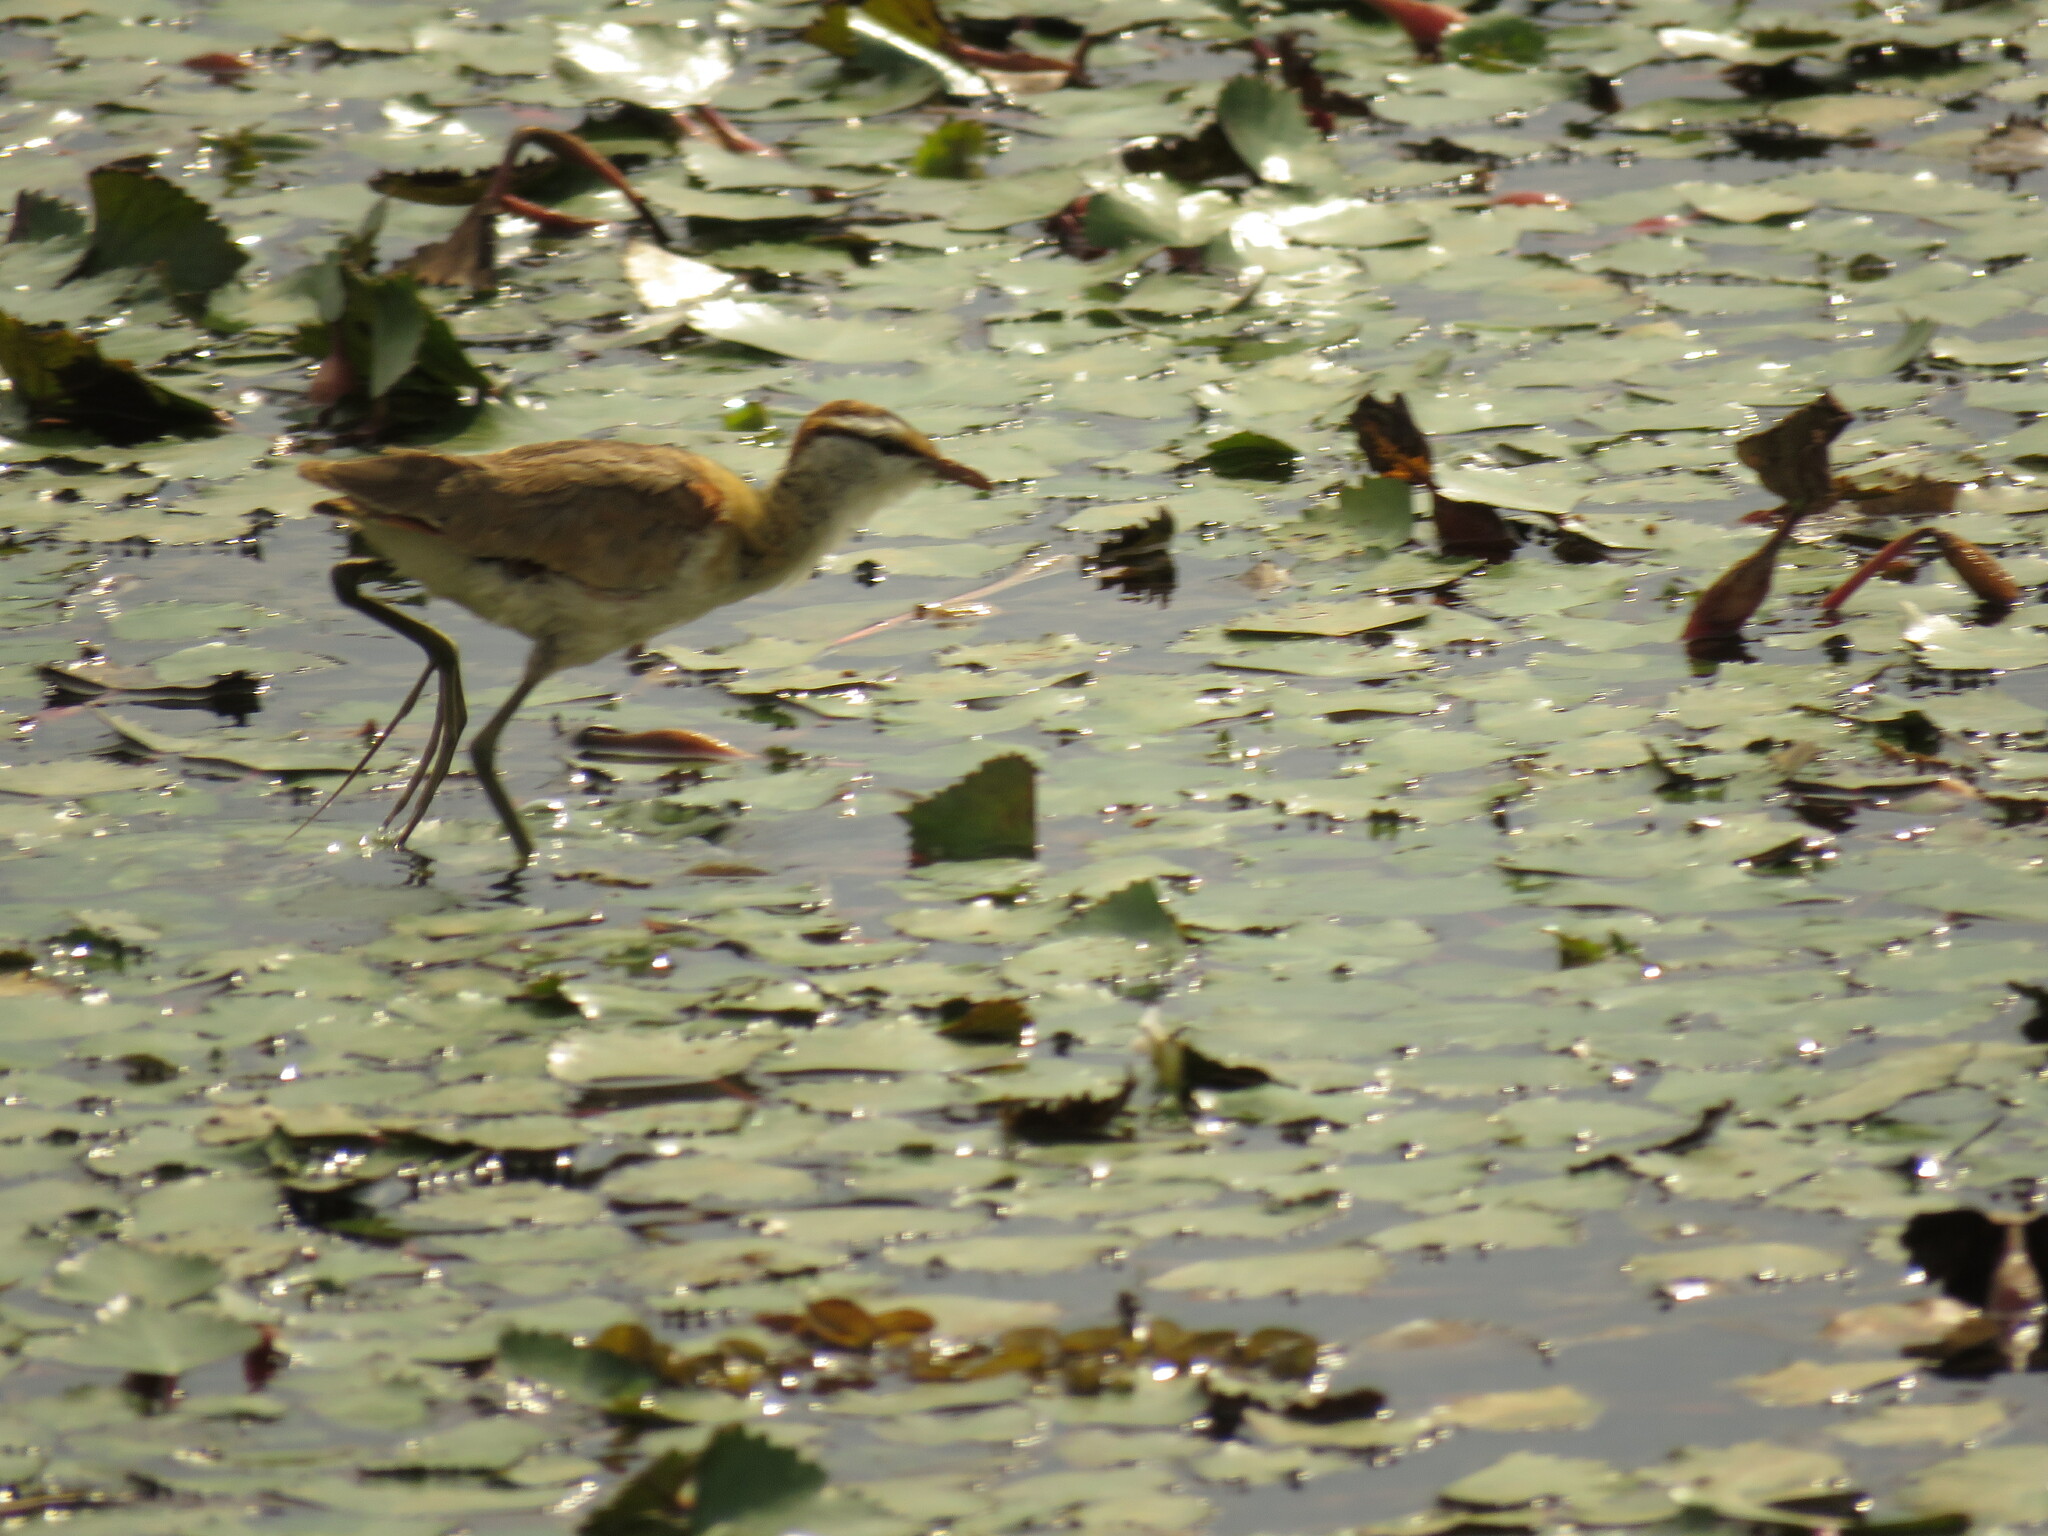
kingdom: Animalia
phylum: Chordata
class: Aves
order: Charadriiformes
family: Jacanidae
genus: Microparra
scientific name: Microparra capensis
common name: Lesser jacana
